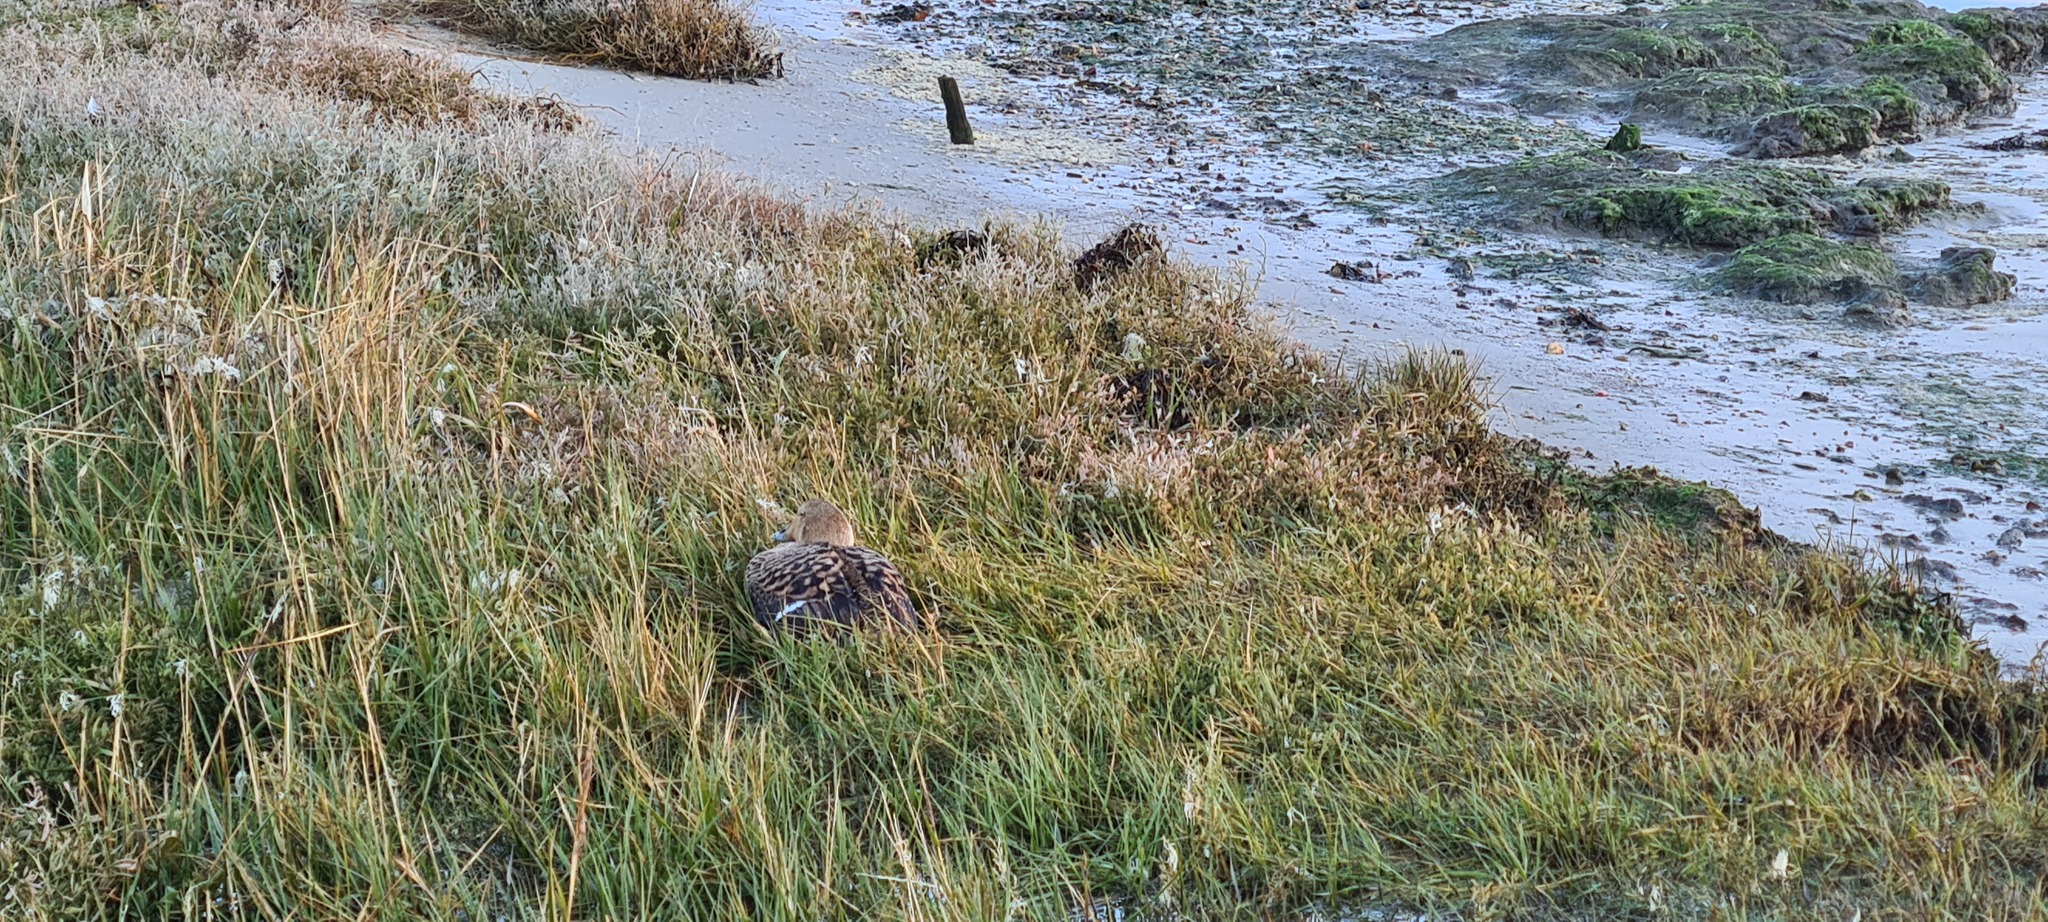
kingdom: Animalia
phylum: Chordata
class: Aves
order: Anseriformes
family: Anatidae
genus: Somateria
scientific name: Somateria mollissima
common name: Common eider
